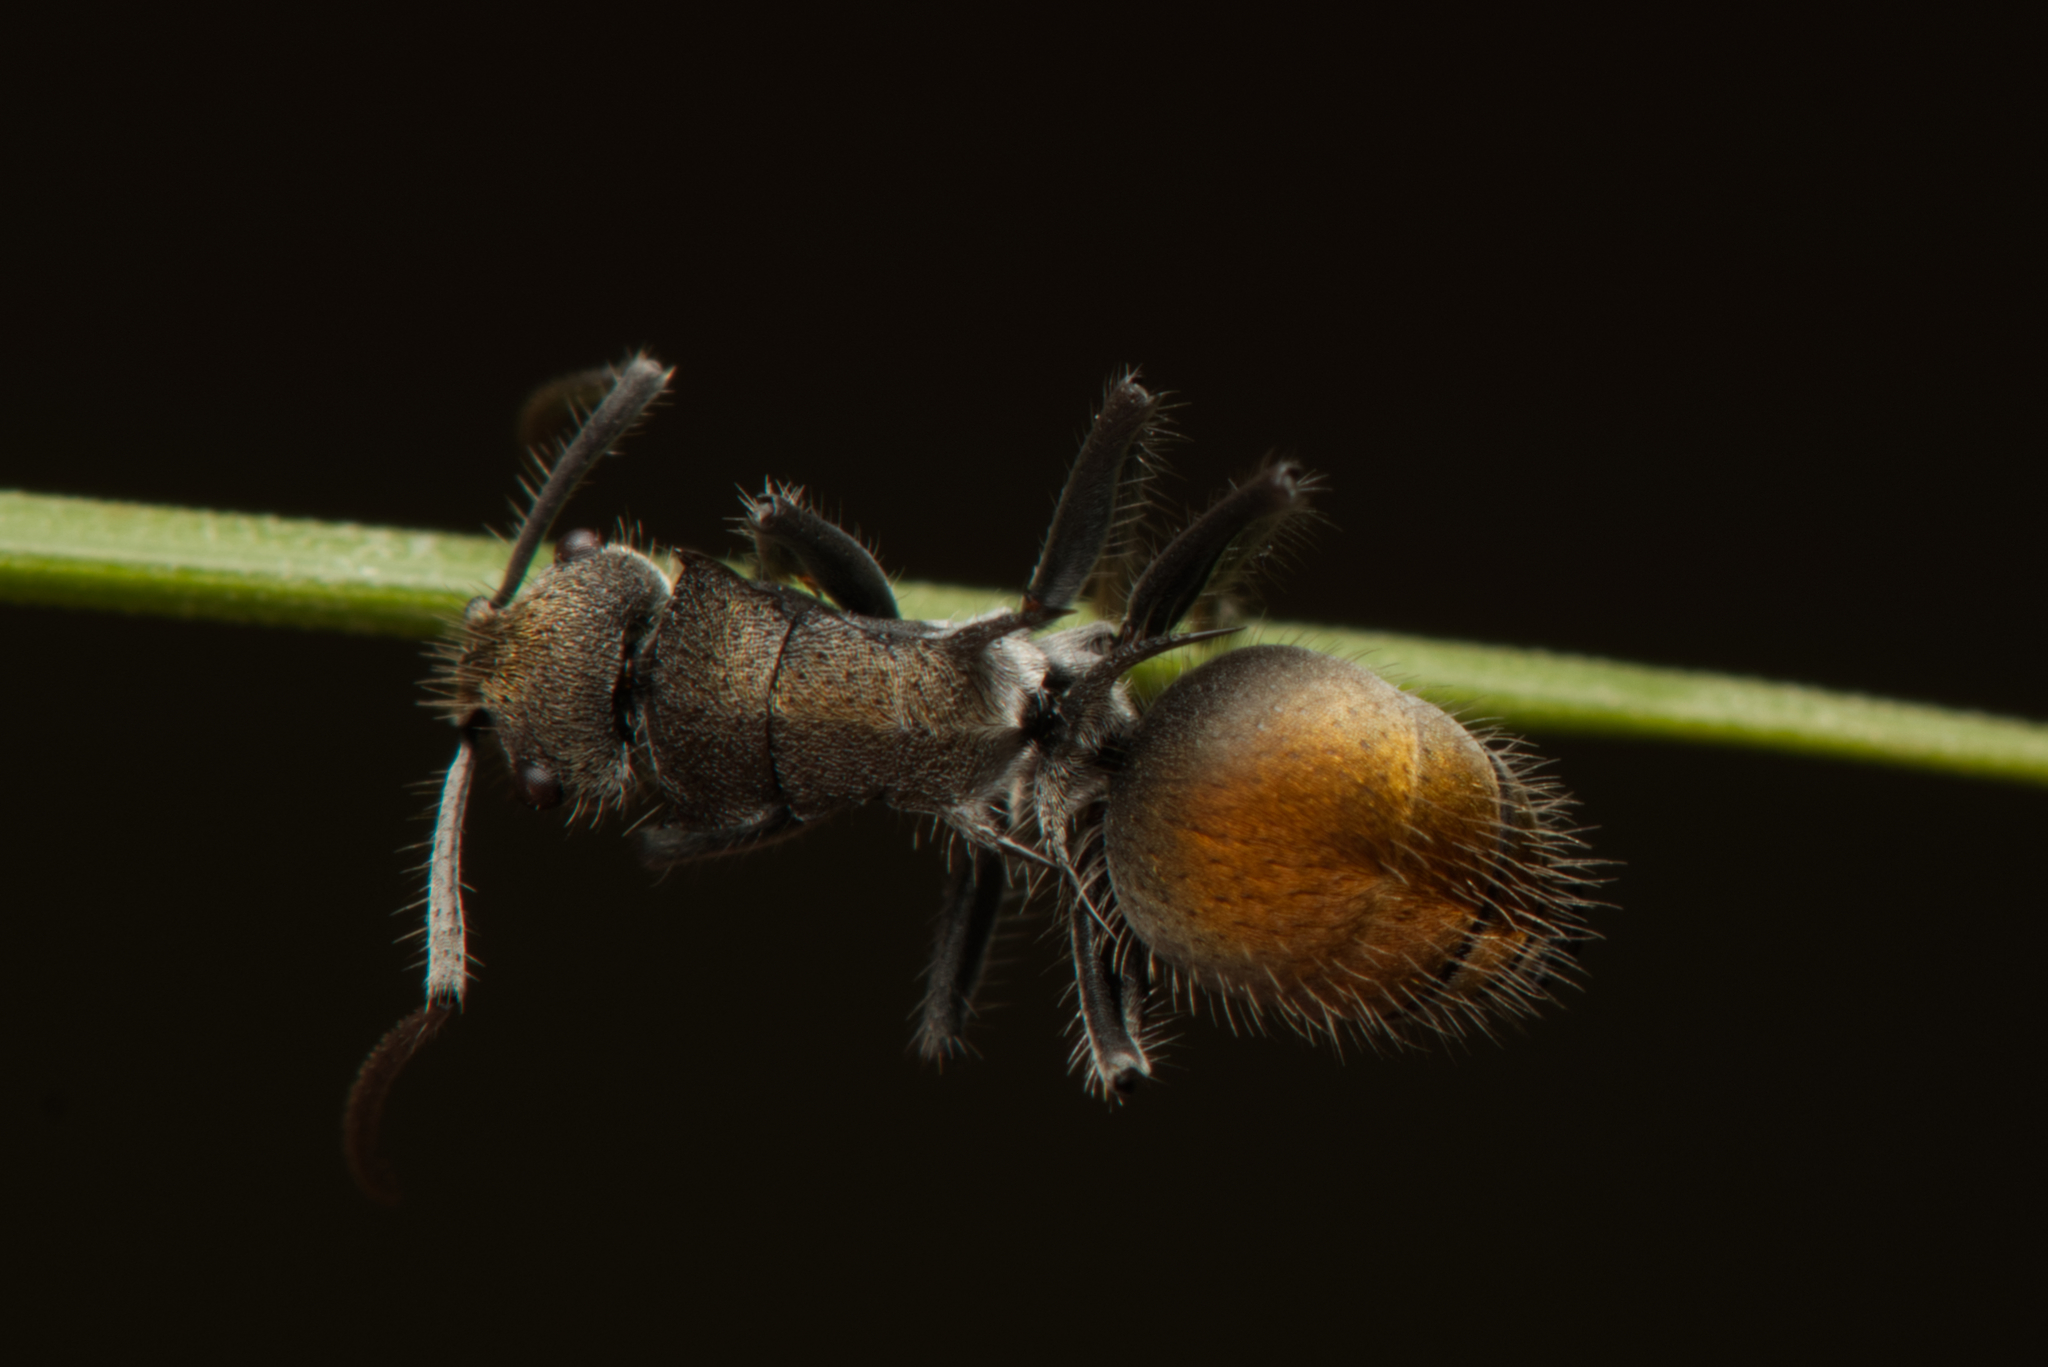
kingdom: Animalia
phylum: Arthropoda
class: Insecta
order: Hymenoptera
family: Formicidae
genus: Polyrhachis
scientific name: Polyrhachis vermiculosa
